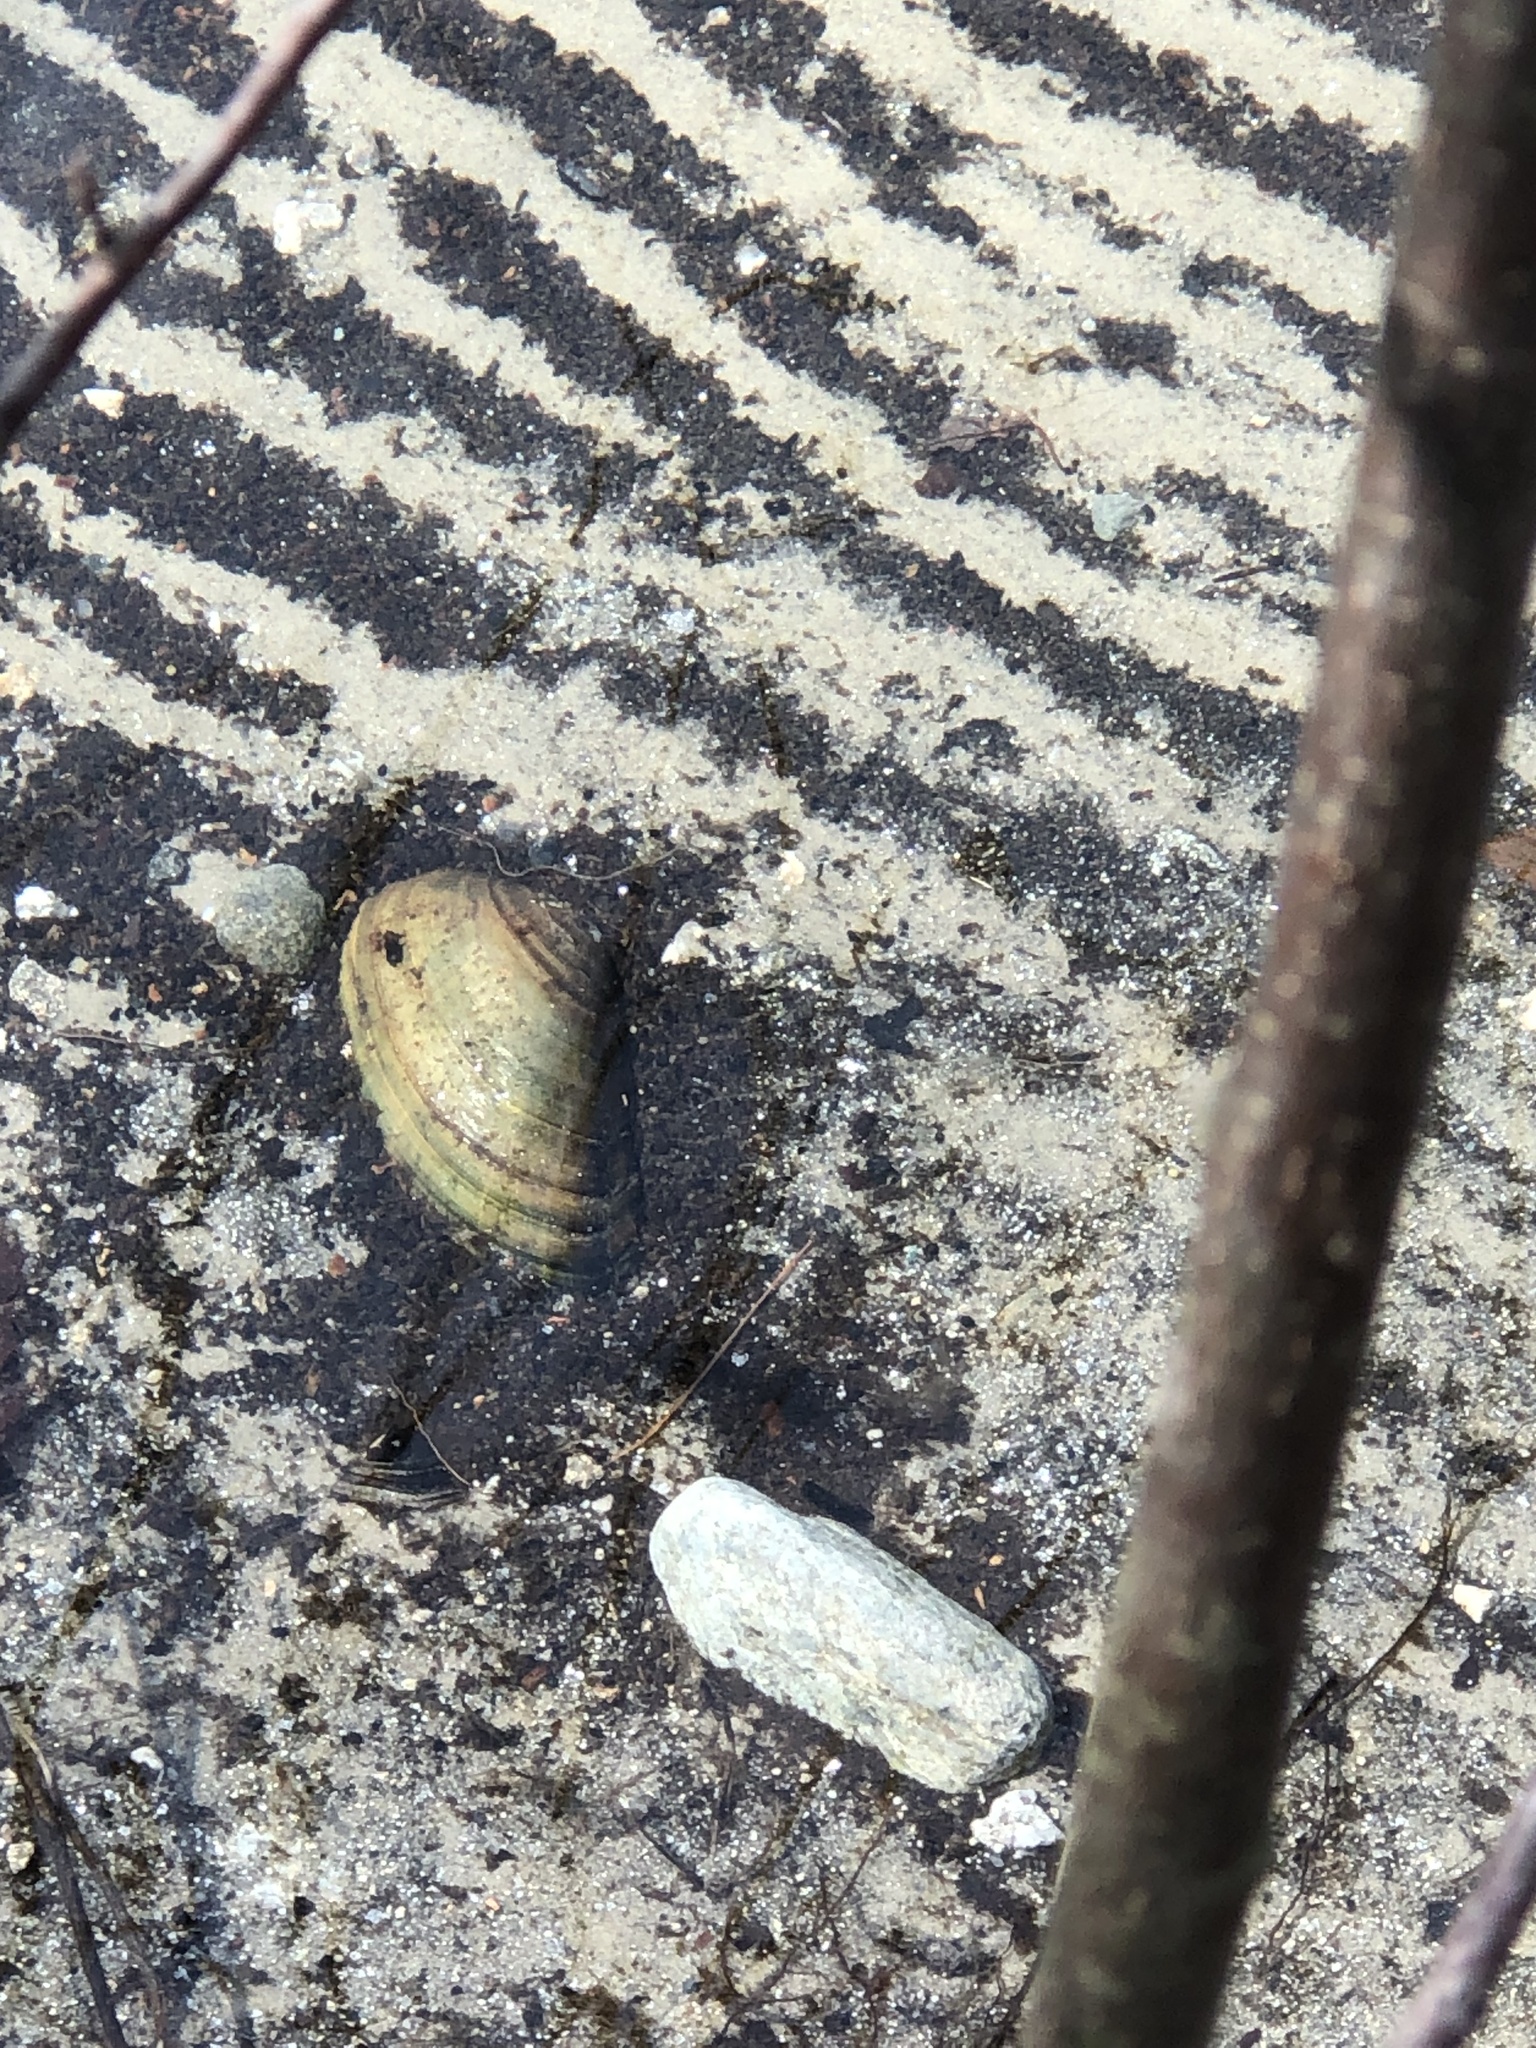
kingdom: Animalia
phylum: Mollusca
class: Bivalvia
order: Unionida
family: Unionidae
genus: Pyganodon
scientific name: Pyganodon cataracta
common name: Eastern floater
